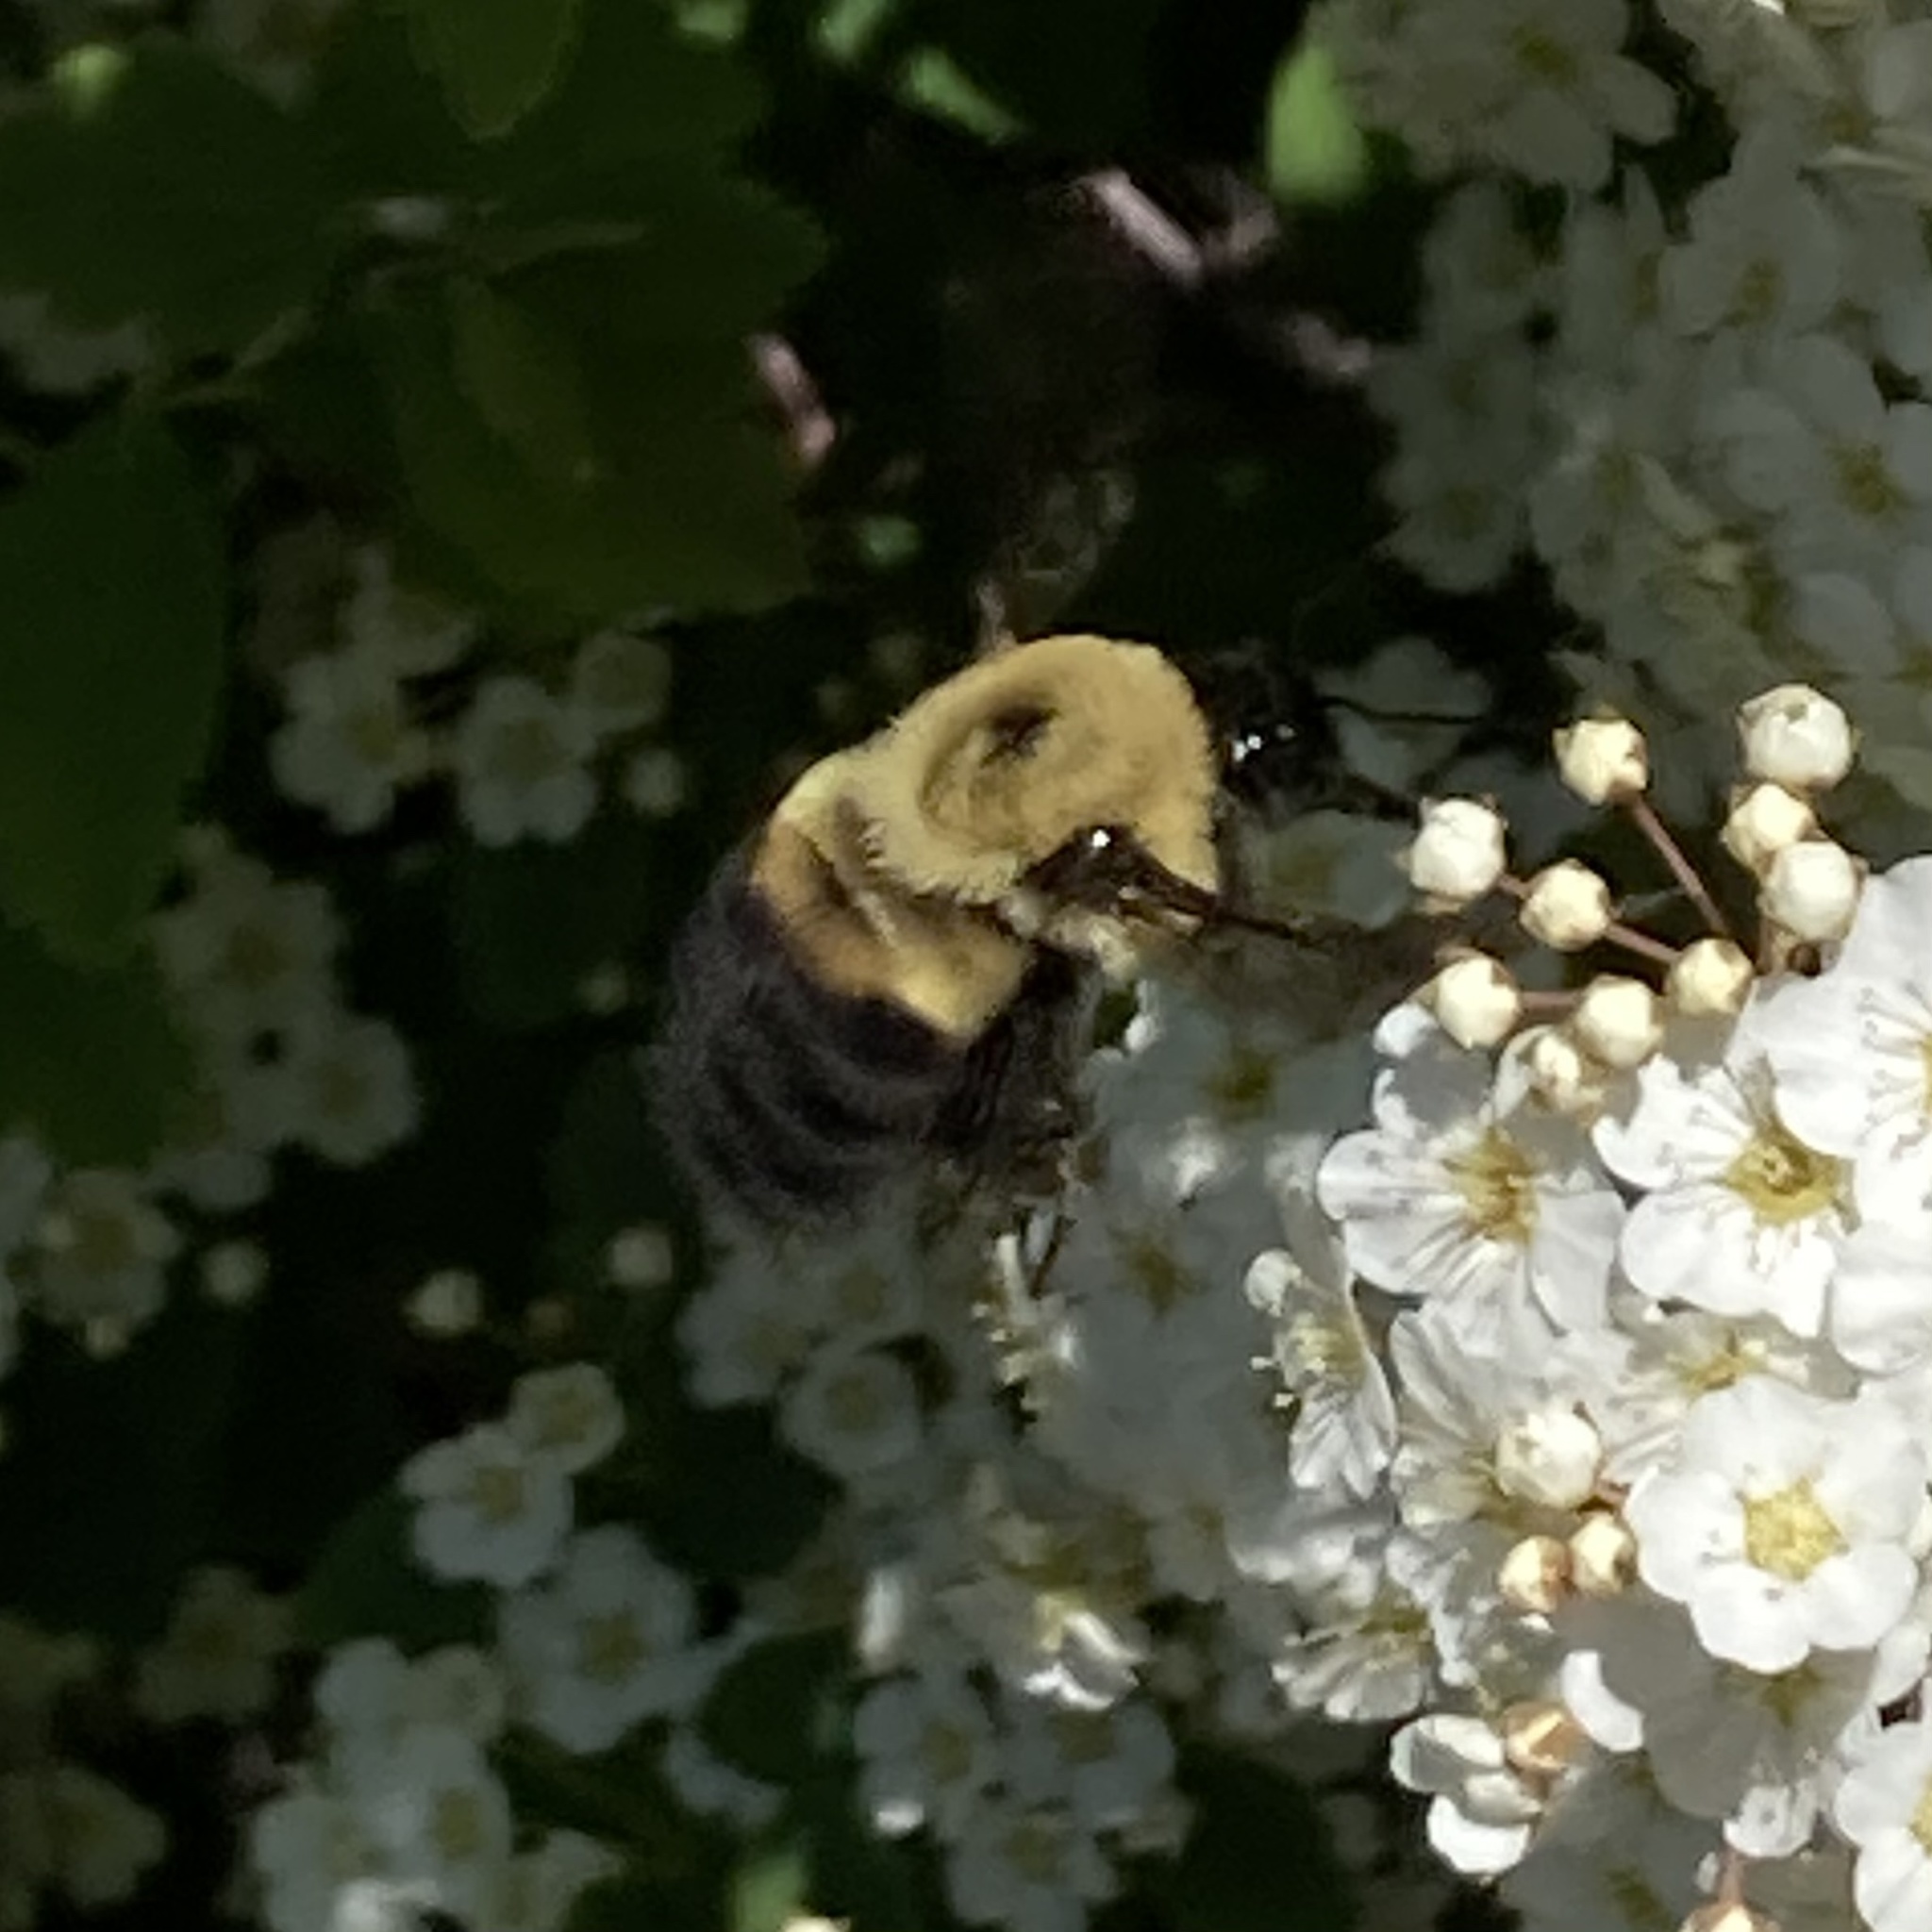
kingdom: Animalia
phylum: Arthropoda
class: Insecta
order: Hymenoptera
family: Apidae
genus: Bombus
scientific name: Bombus griseocollis
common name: Brown-belted bumble bee
